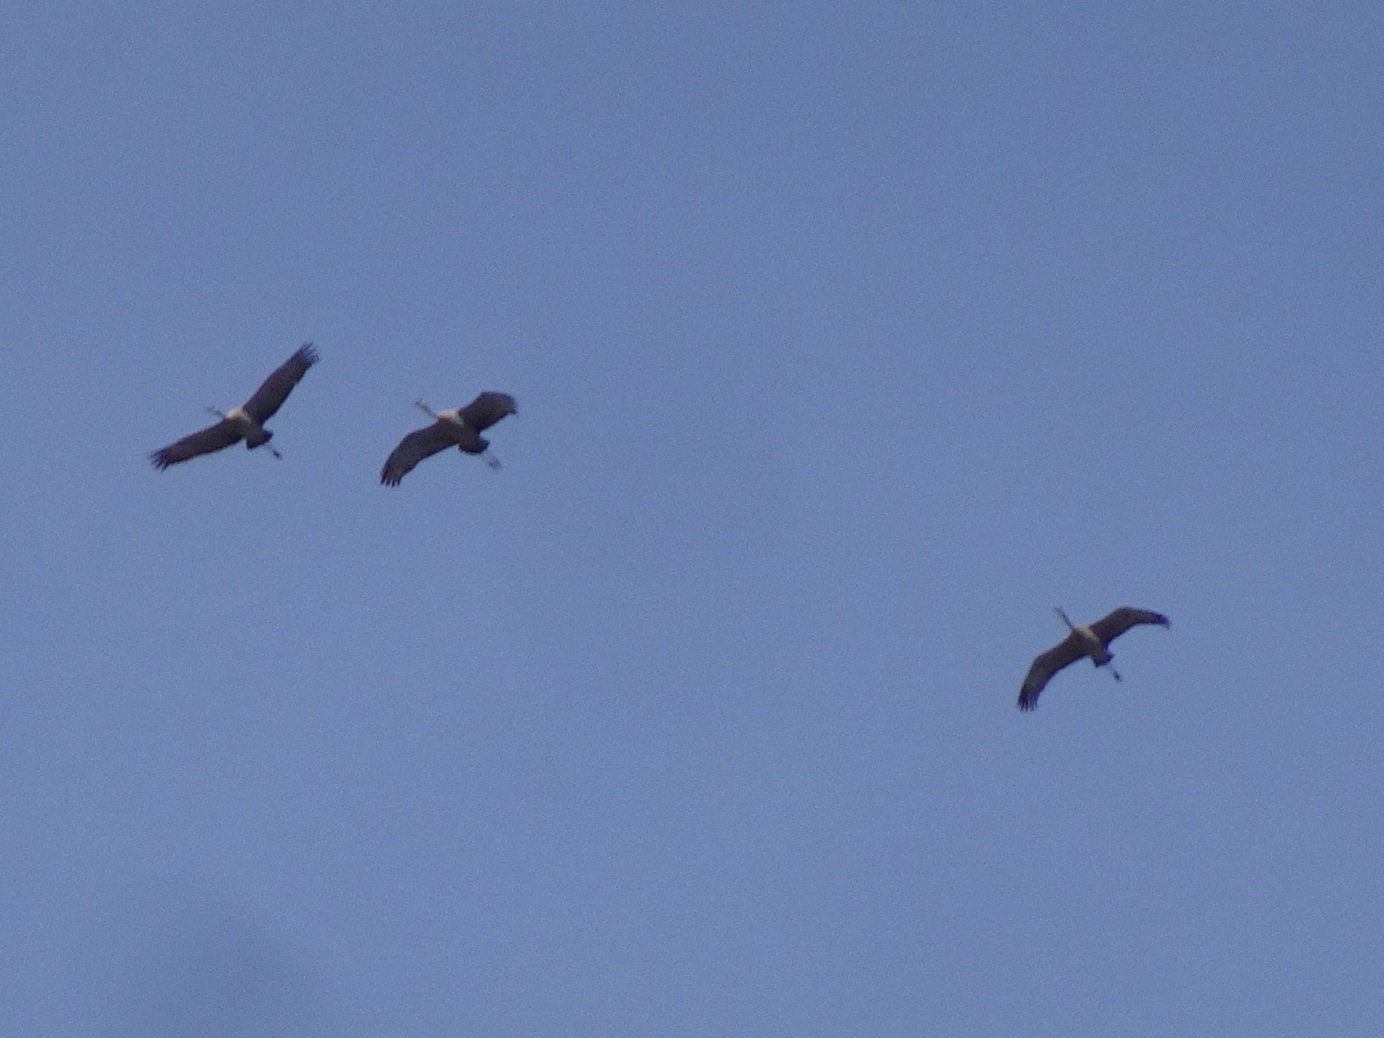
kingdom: Animalia
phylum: Chordata
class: Aves
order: Gruiformes
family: Gruidae
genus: Grus
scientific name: Grus canadensis
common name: Sandhill crane
